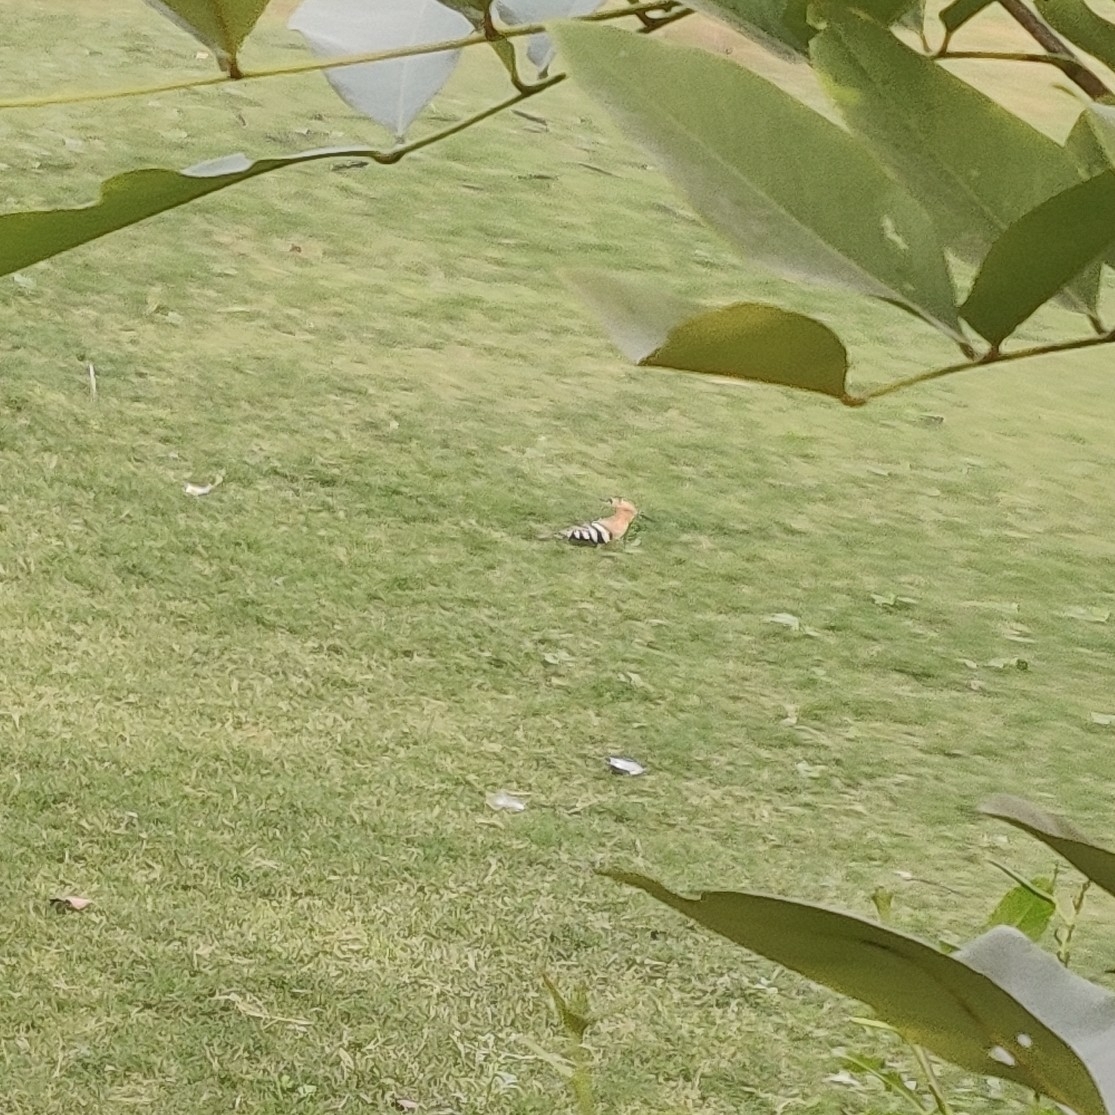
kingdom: Animalia
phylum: Chordata
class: Aves
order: Bucerotiformes
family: Upupidae
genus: Upupa
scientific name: Upupa epops
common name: Eurasian hoopoe
